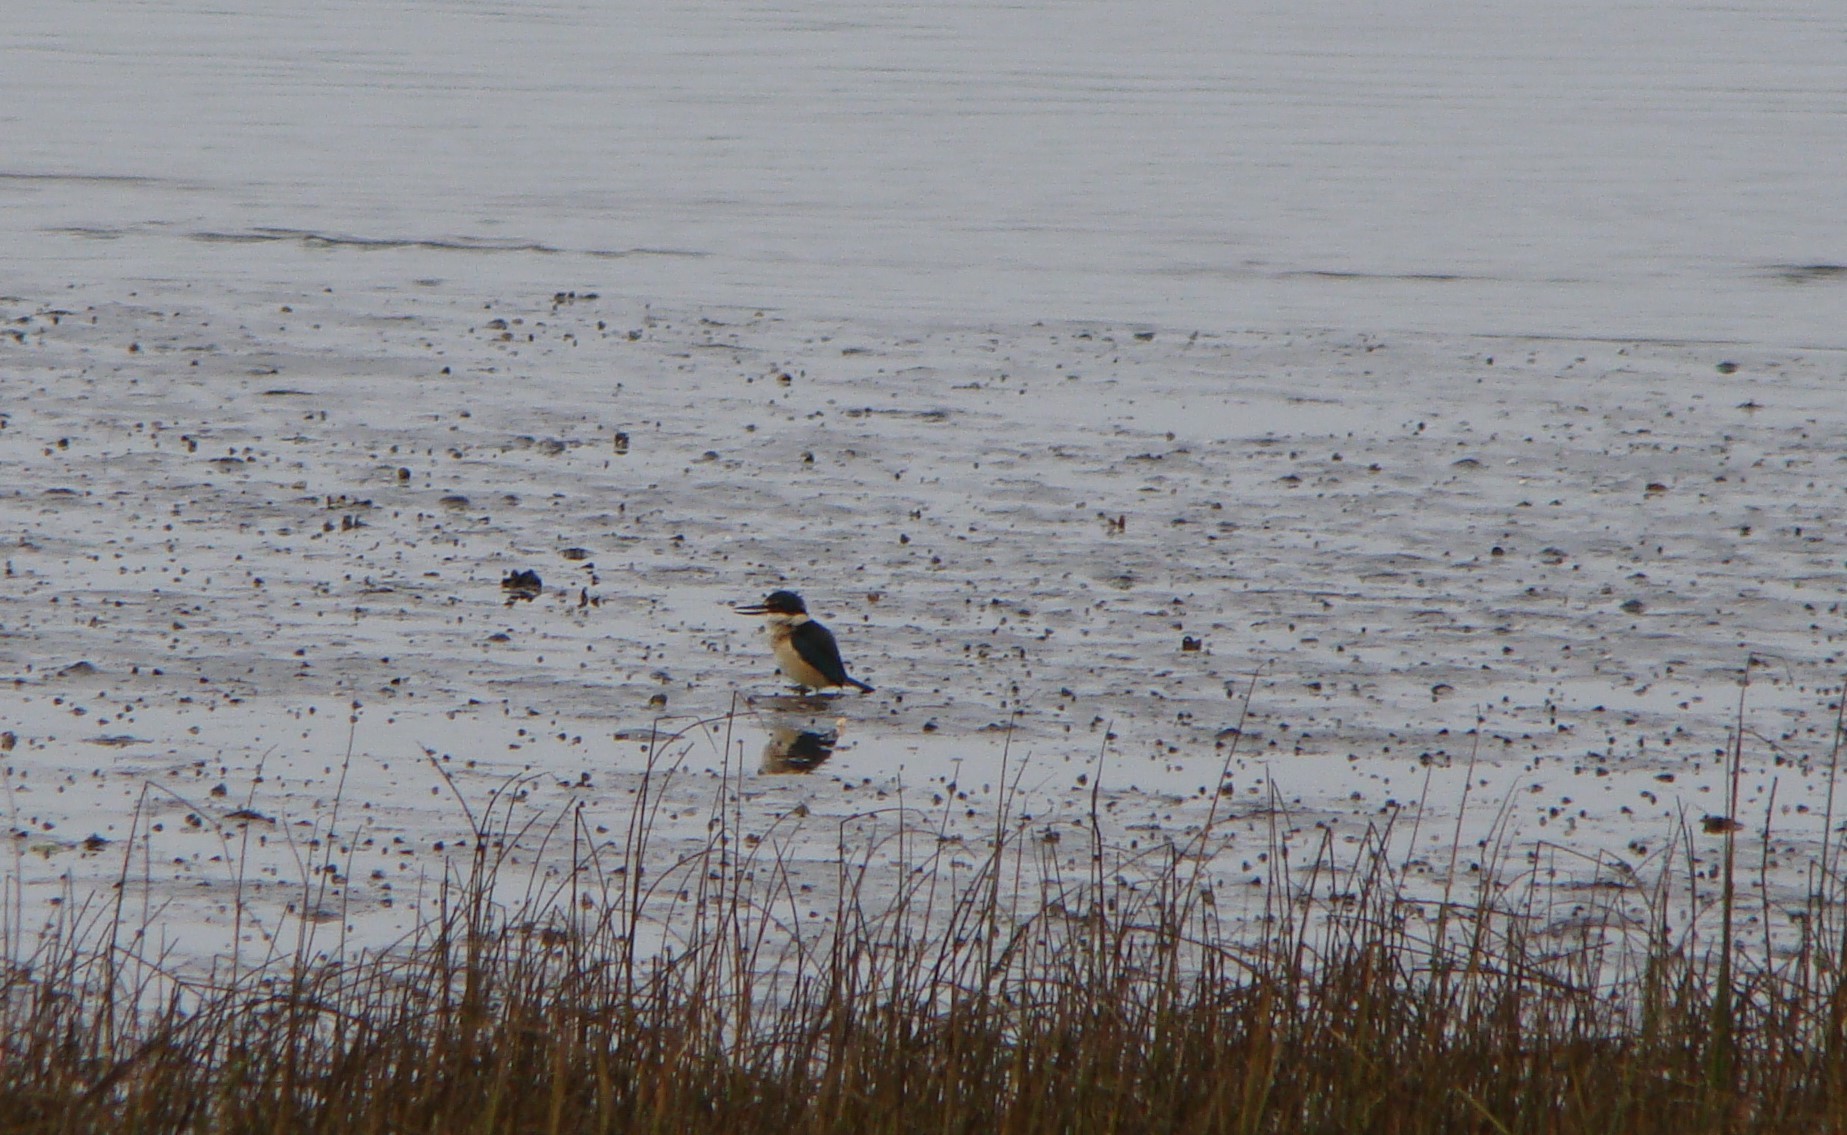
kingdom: Animalia
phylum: Chordata
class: Aves
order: Coraciiformes
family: Alcedinidae
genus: Todiramphus
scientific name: Todiramphus sanctus
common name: Sacred kingfisher
